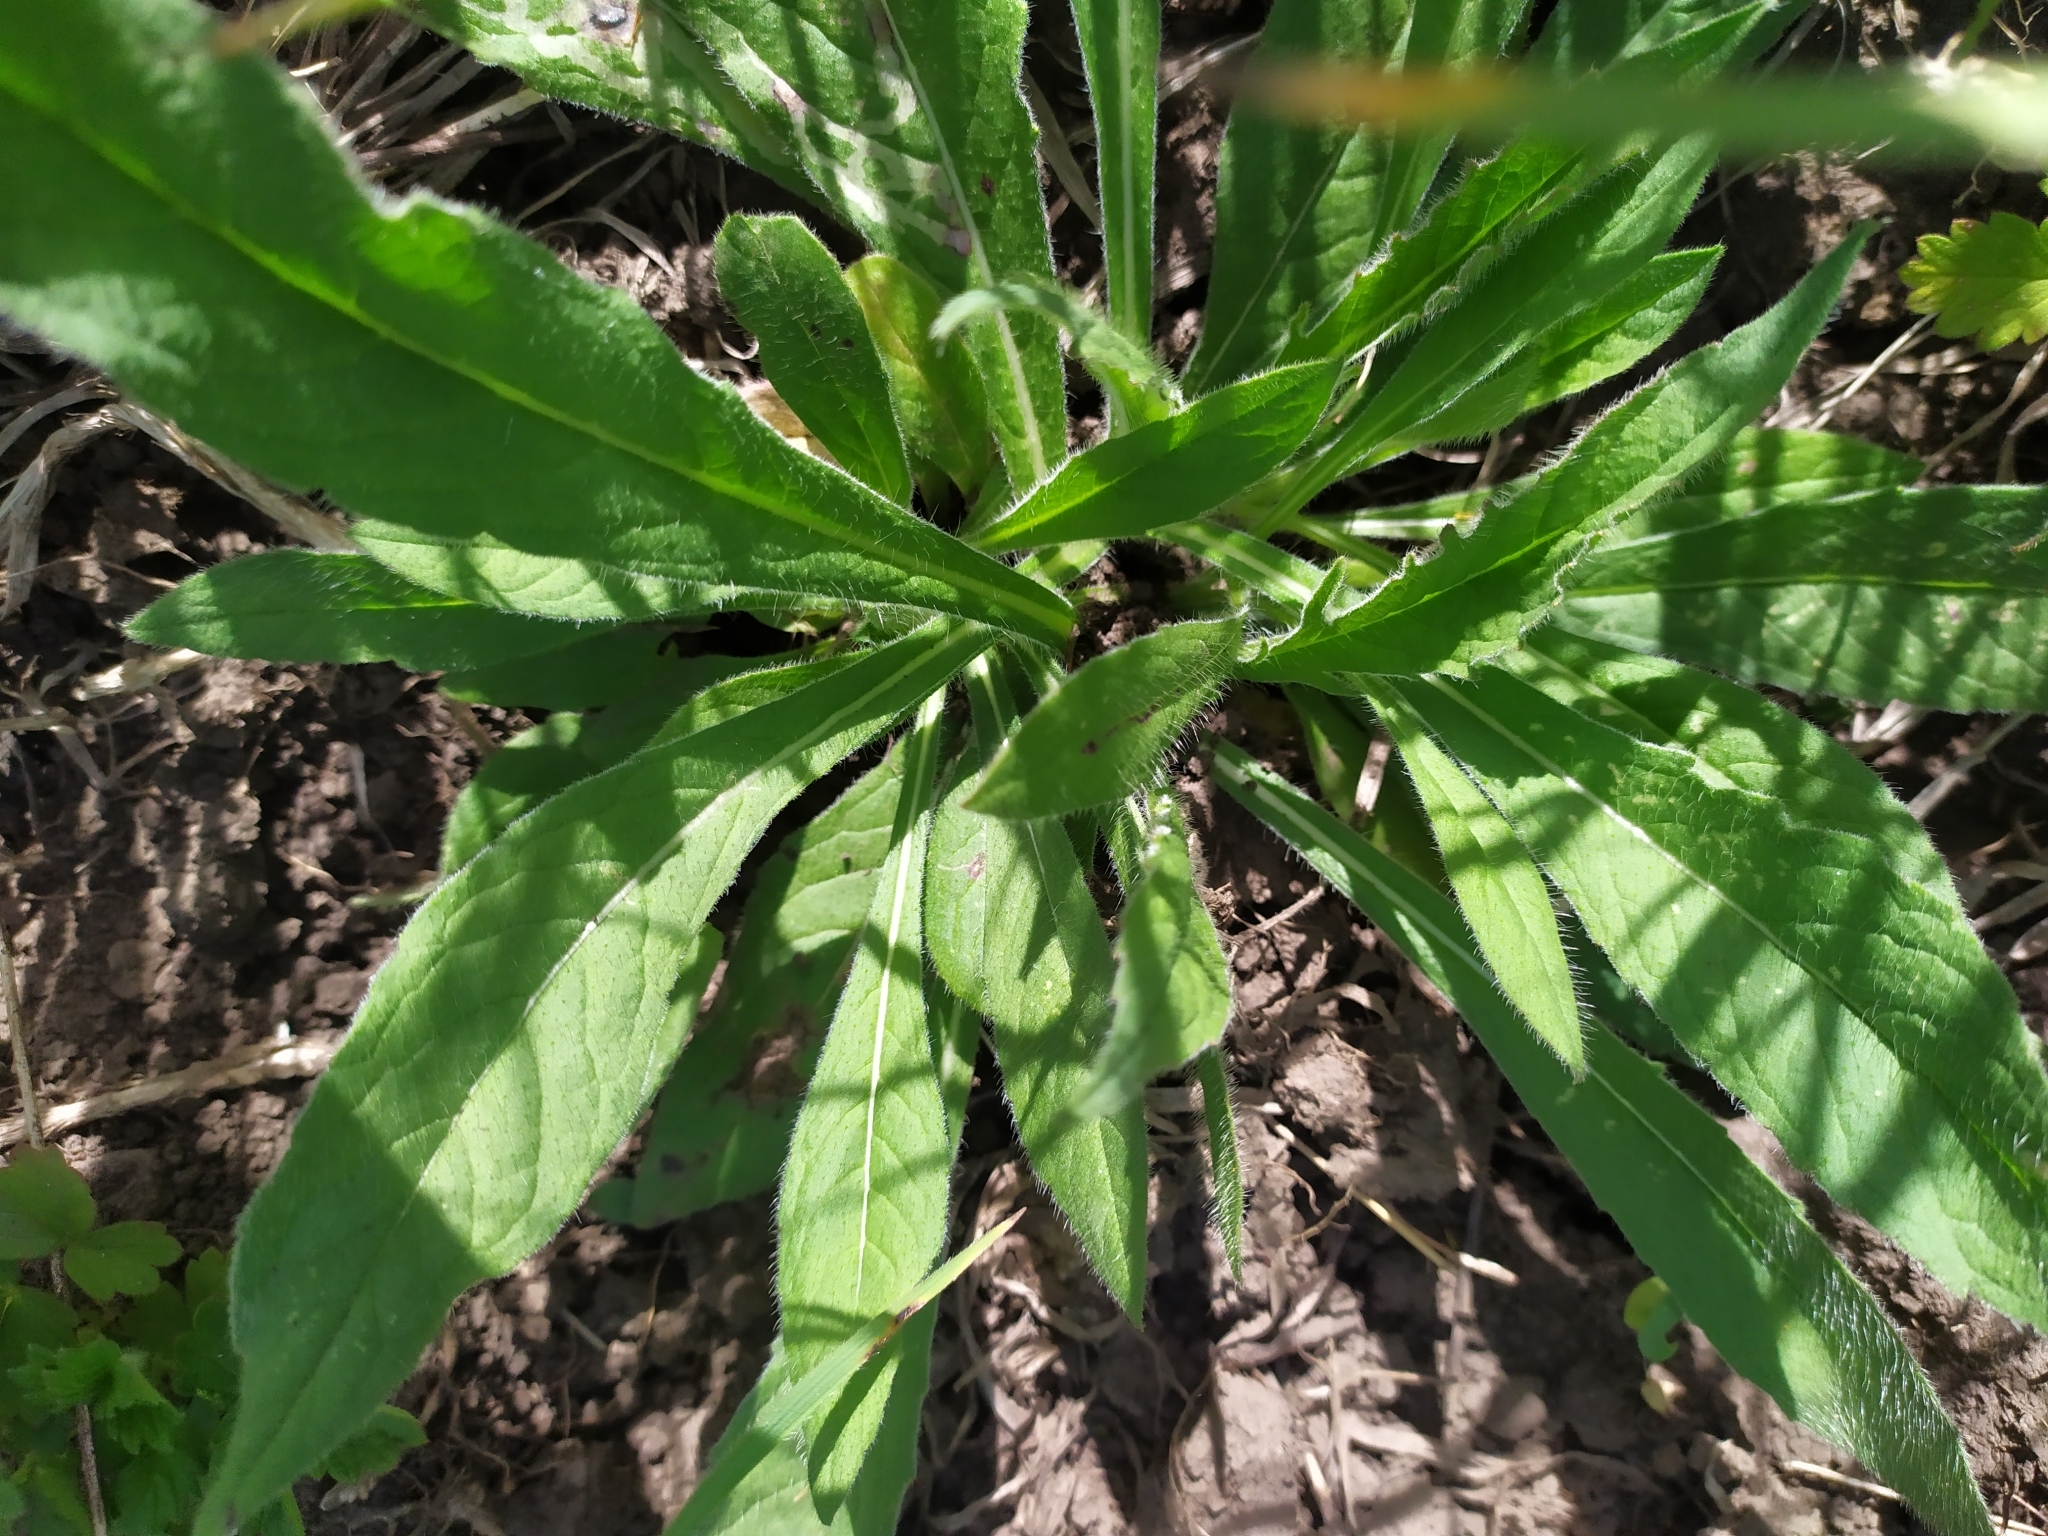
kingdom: Plantae
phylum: Tracheophyta
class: Magnoliopsida
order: Dipsacales
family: Caprifoliaceae
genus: Knautia
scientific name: Knautia arvensis
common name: Field scabiosa
